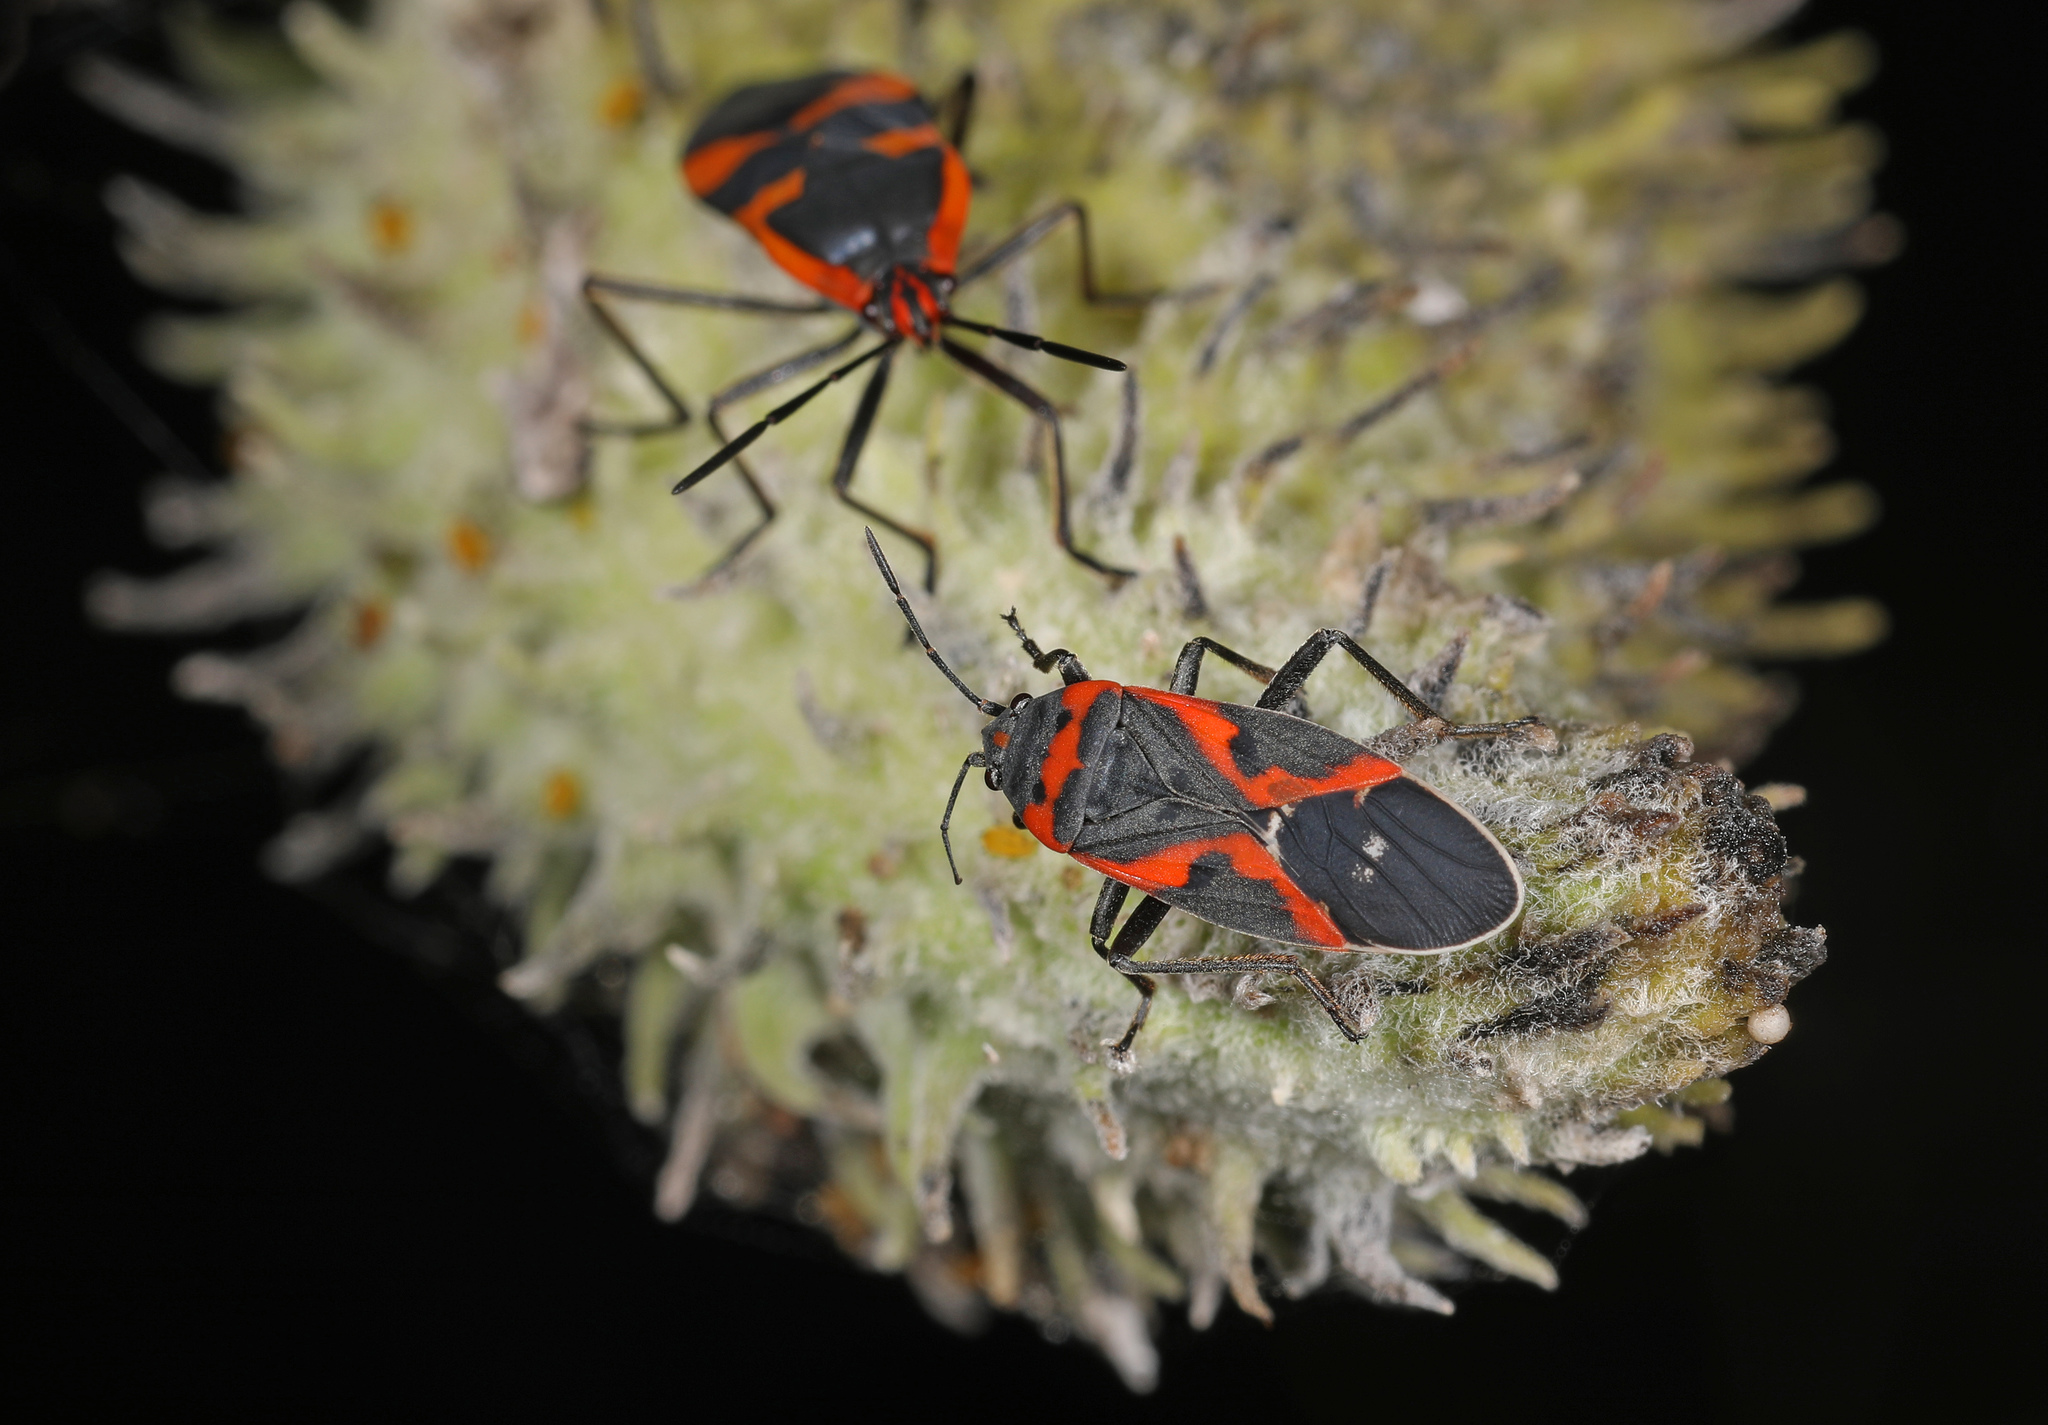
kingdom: Animalia
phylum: Arthropoda
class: Insecta
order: Hemiptera
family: Lygaeidae
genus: Lygaeus
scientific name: Lygaeus kalmii
